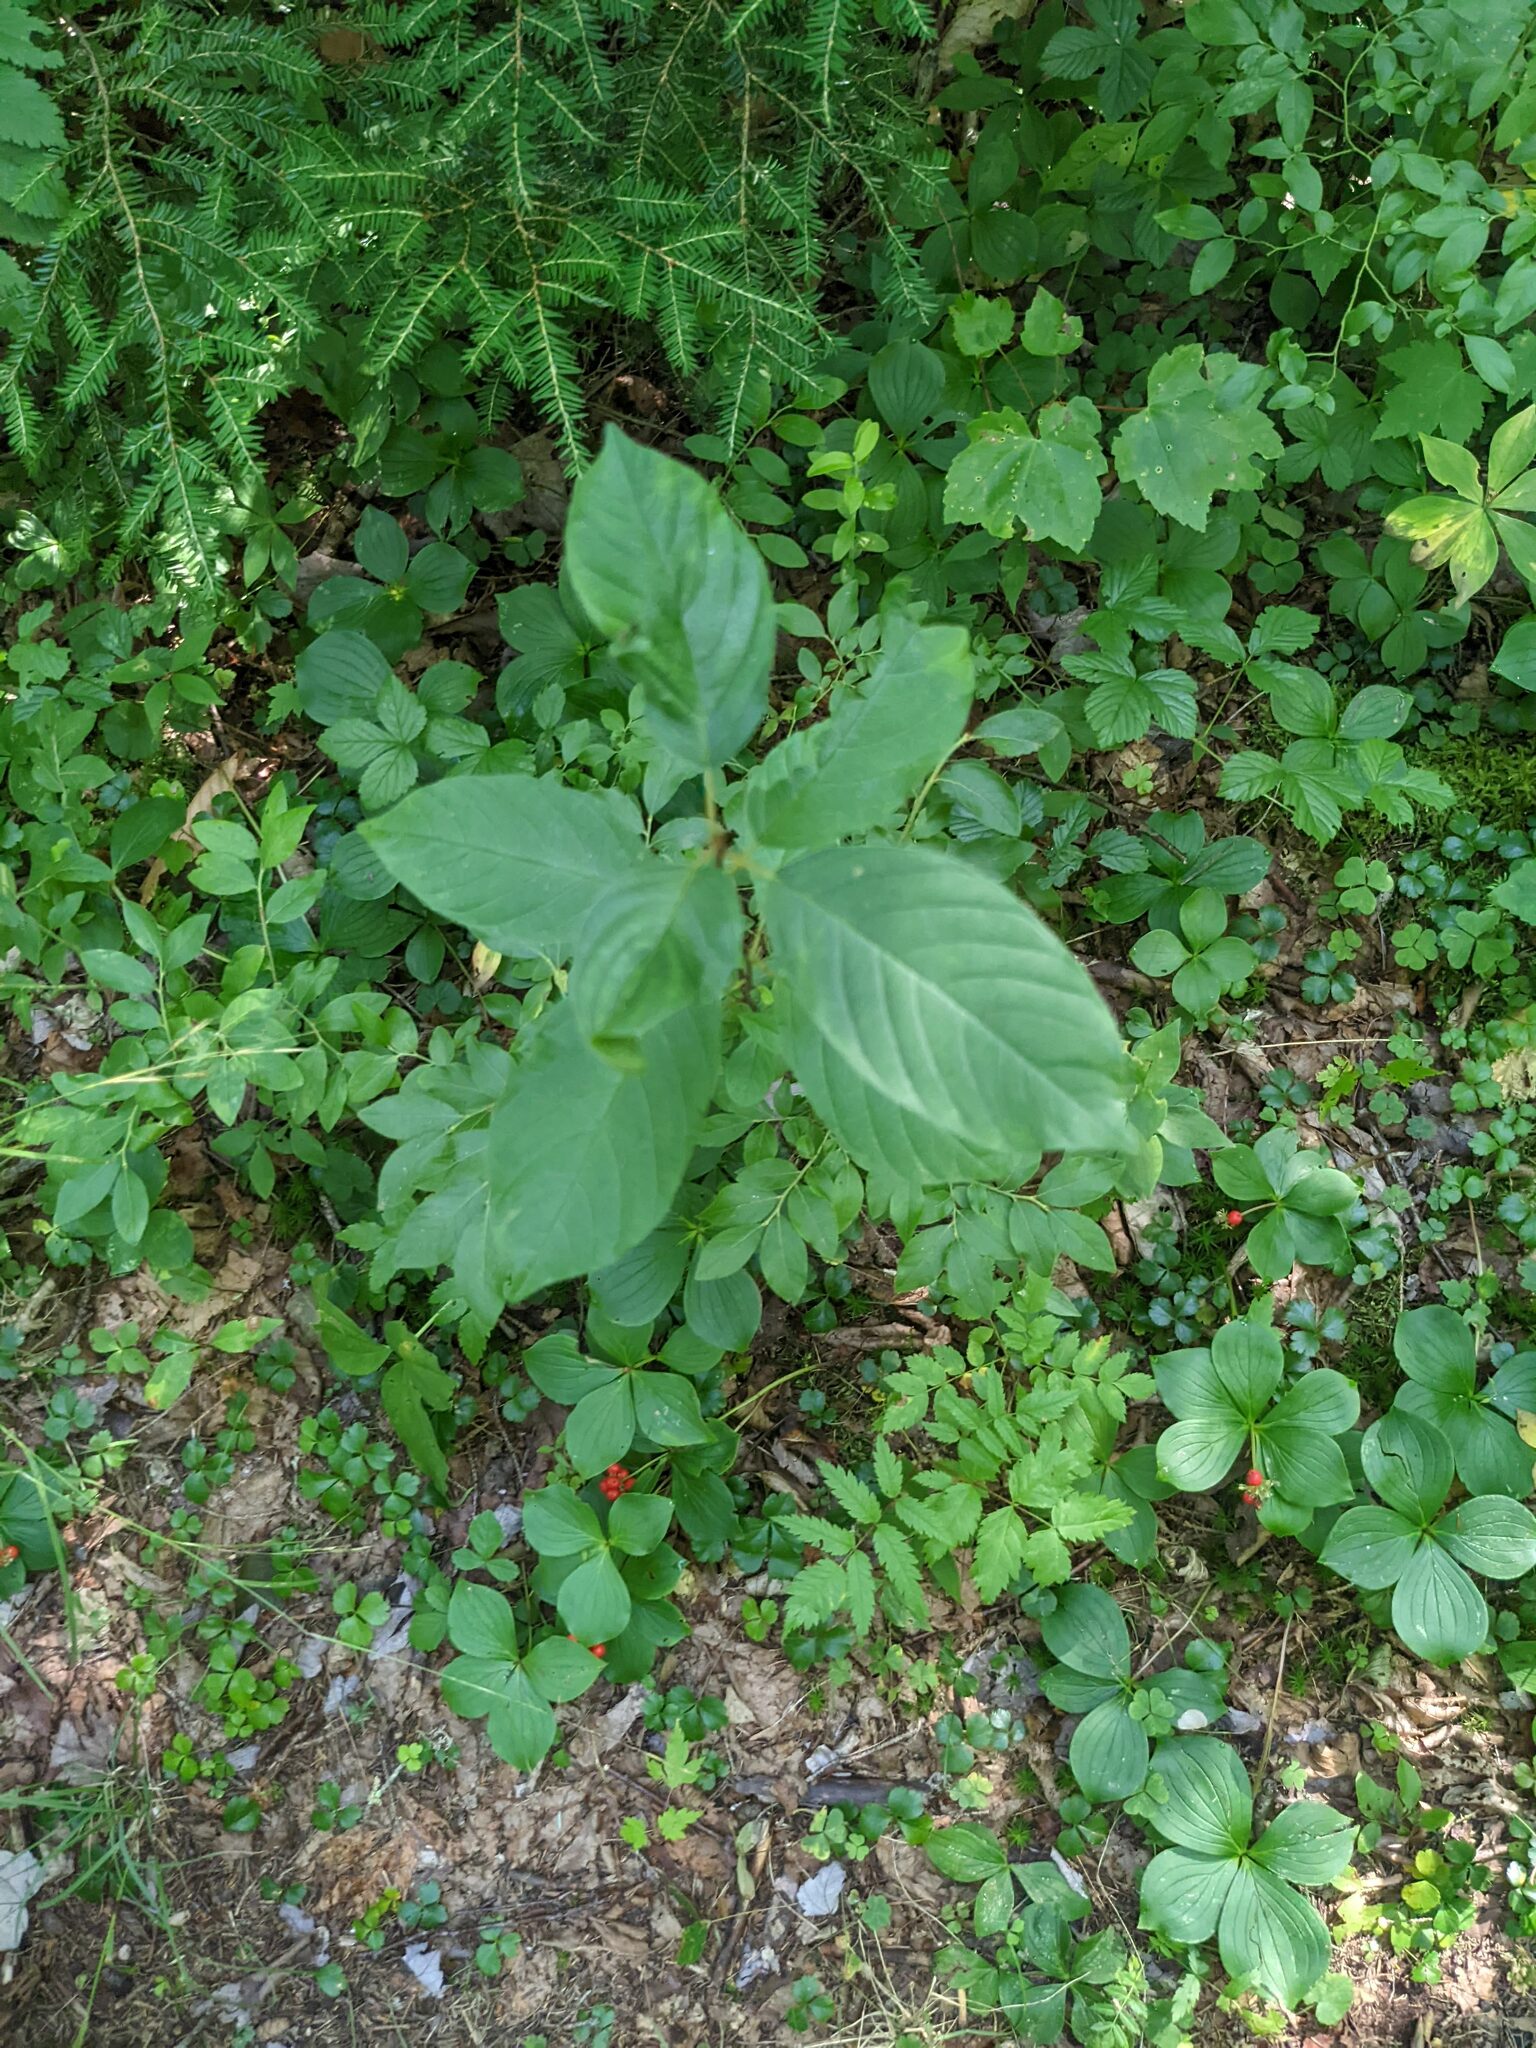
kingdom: Plantae
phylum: Tracheophyta
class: Magnoliopsida
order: Rosales
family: Rhamnaceae
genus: Frangula
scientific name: Frangula alnus
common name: Alder buckthorn
